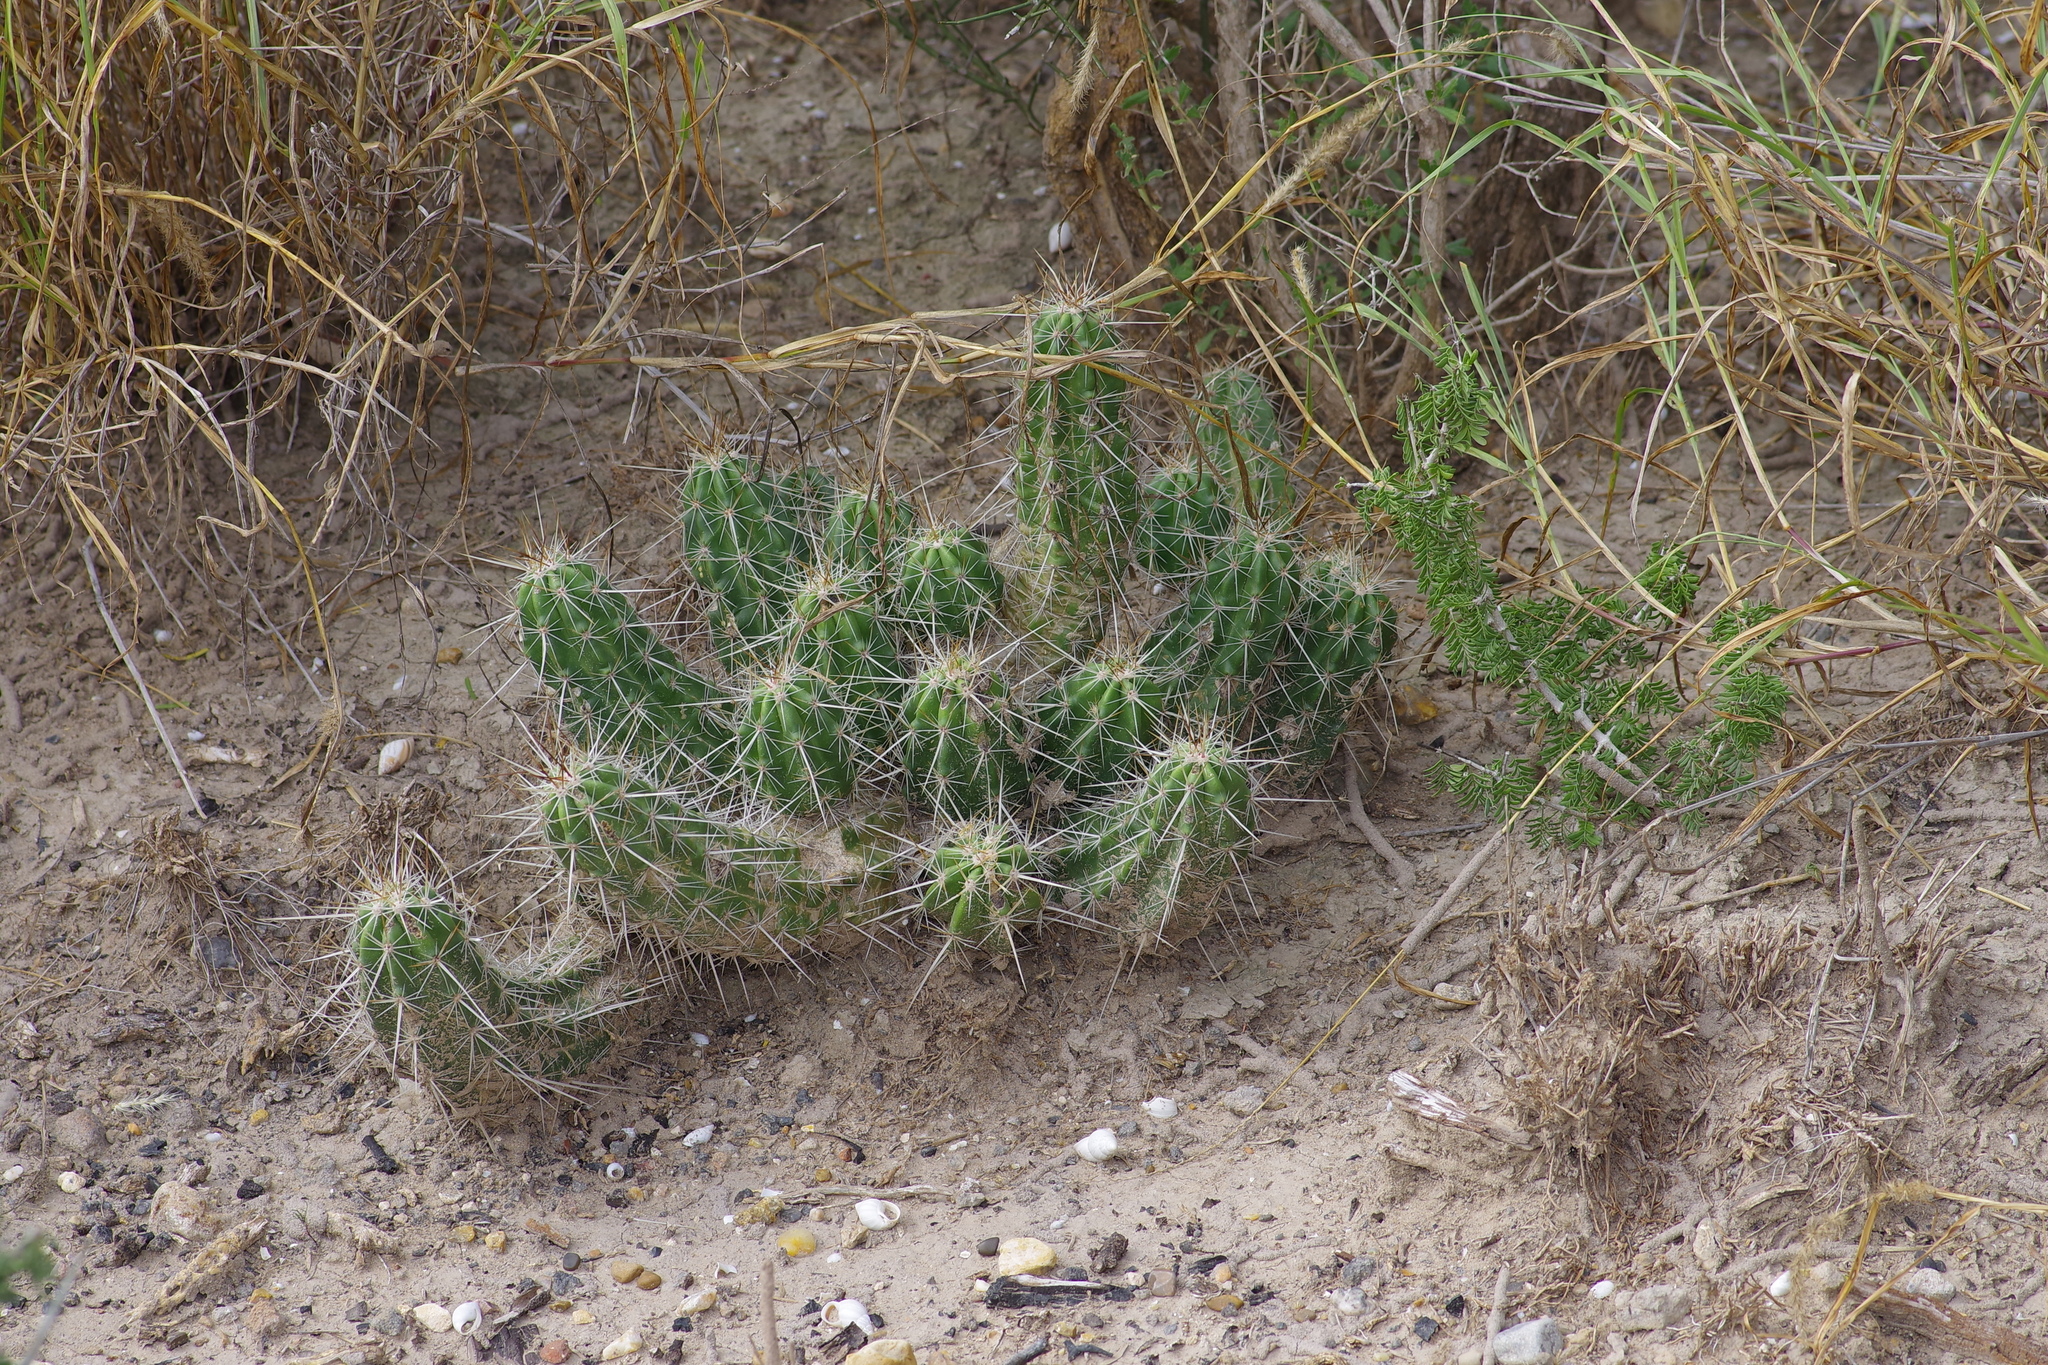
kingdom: Plantae
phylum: Tracheophyta
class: Magnoliopsida
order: Caryophyllales
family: Cactaceae
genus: Echinocereus
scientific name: Echinocereus enneacanthus
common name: Pitaya
